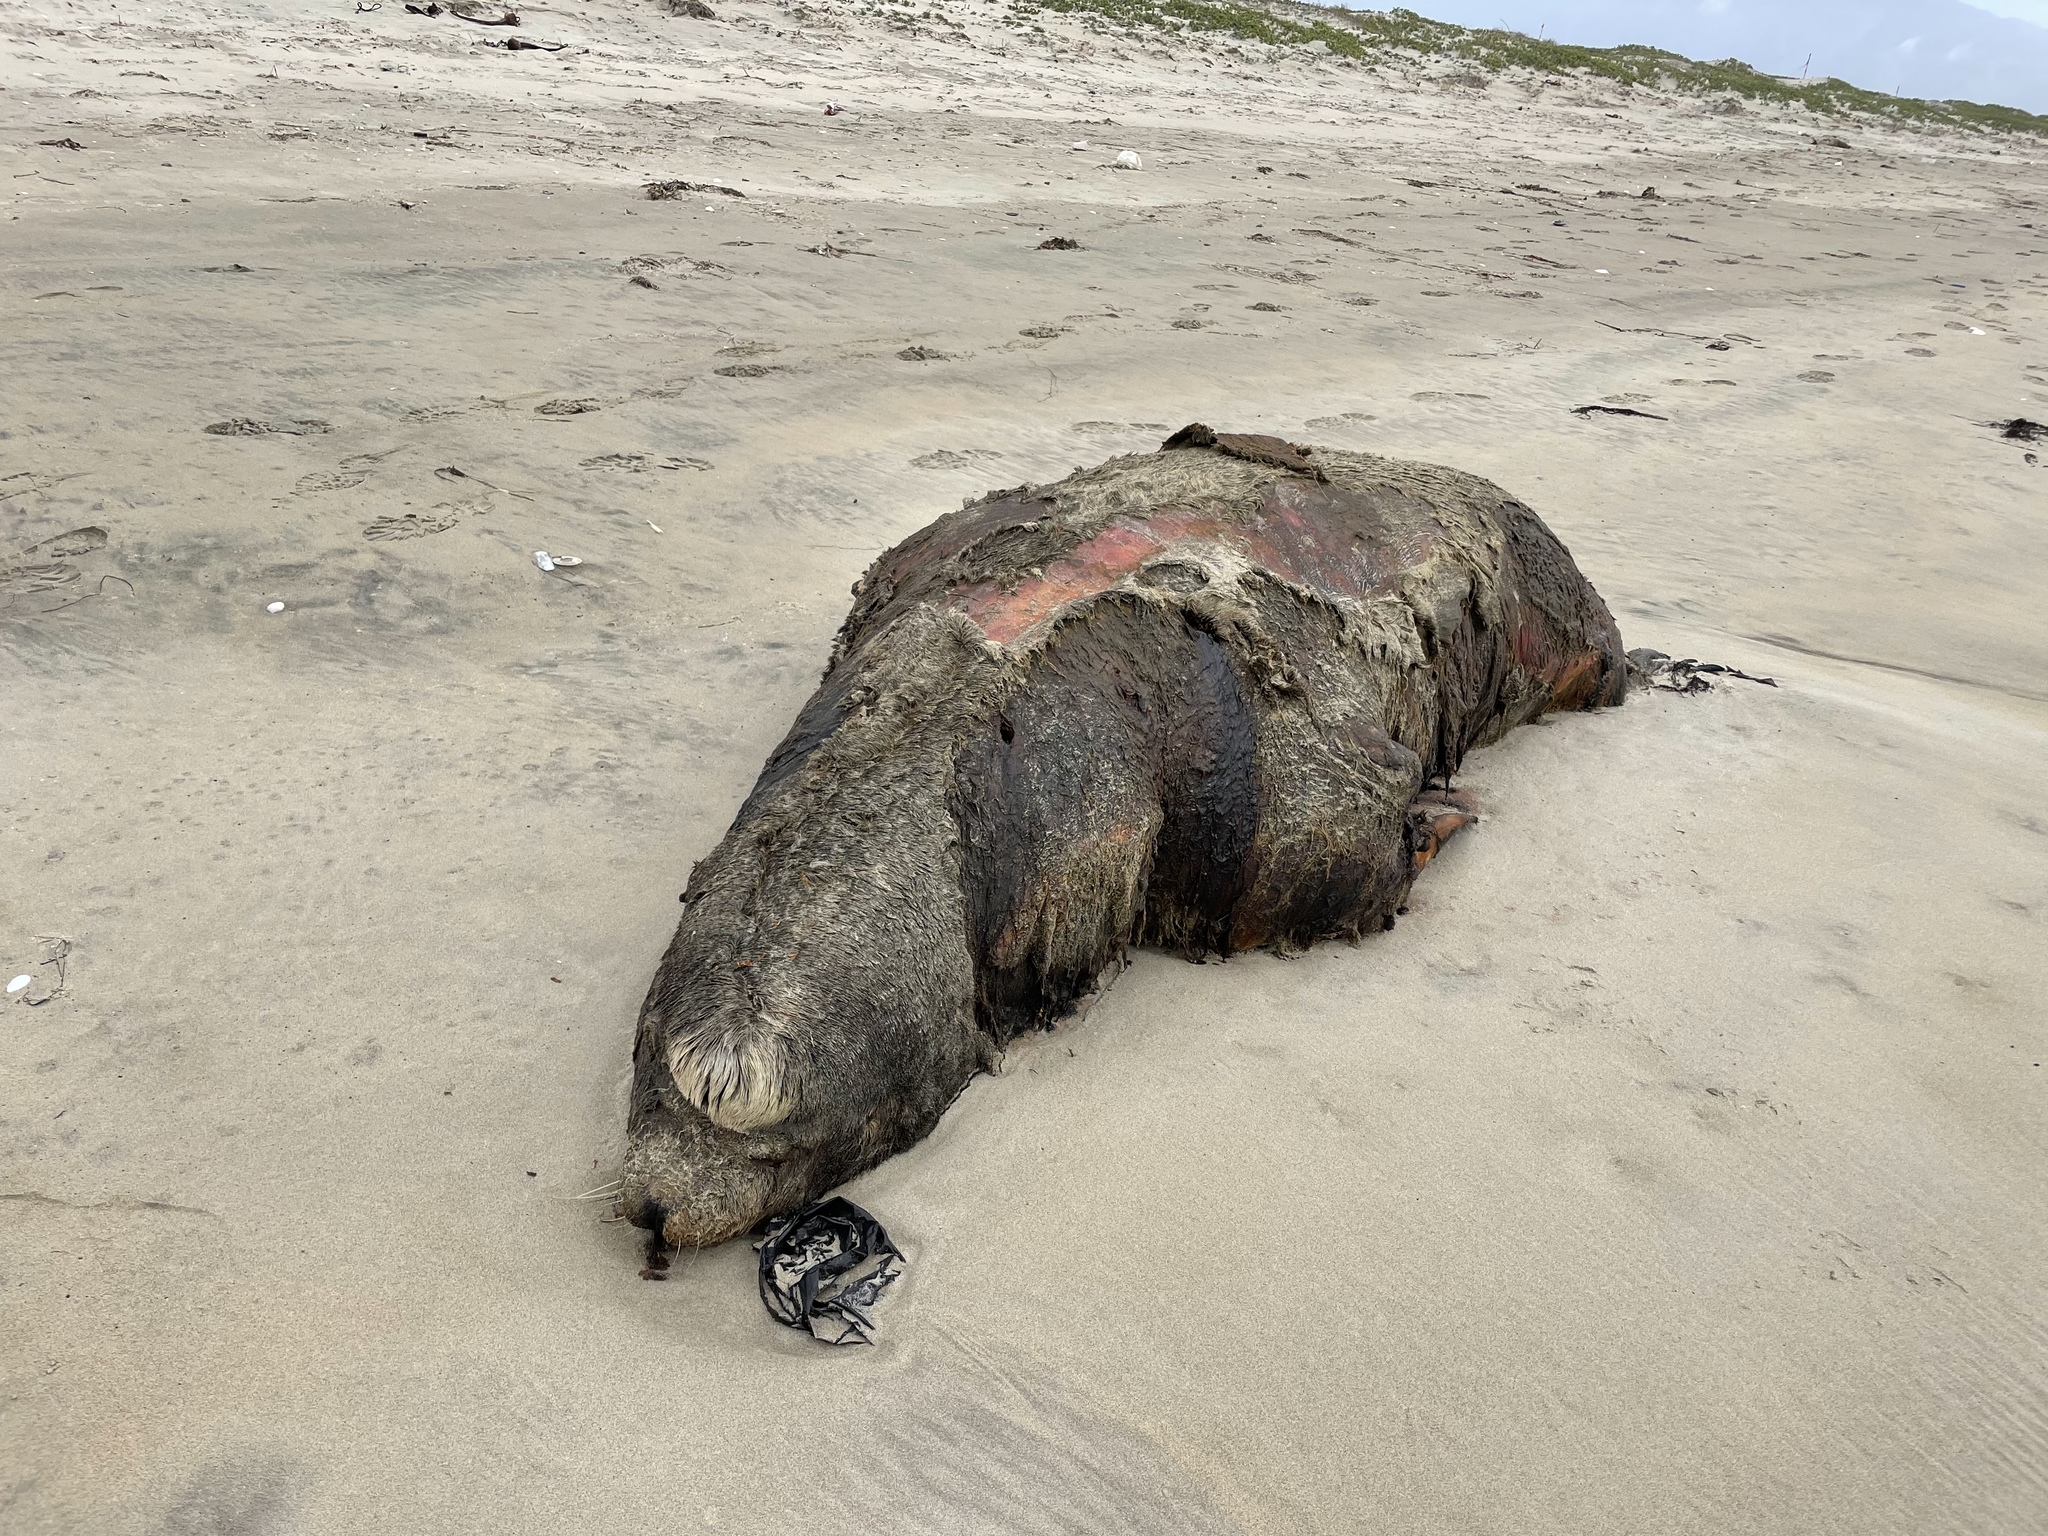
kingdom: Animalia
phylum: Chordata
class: Mammalia
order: Carnivora
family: Otariidae
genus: Zalophus
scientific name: Zalophus californianus
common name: California sea lion
